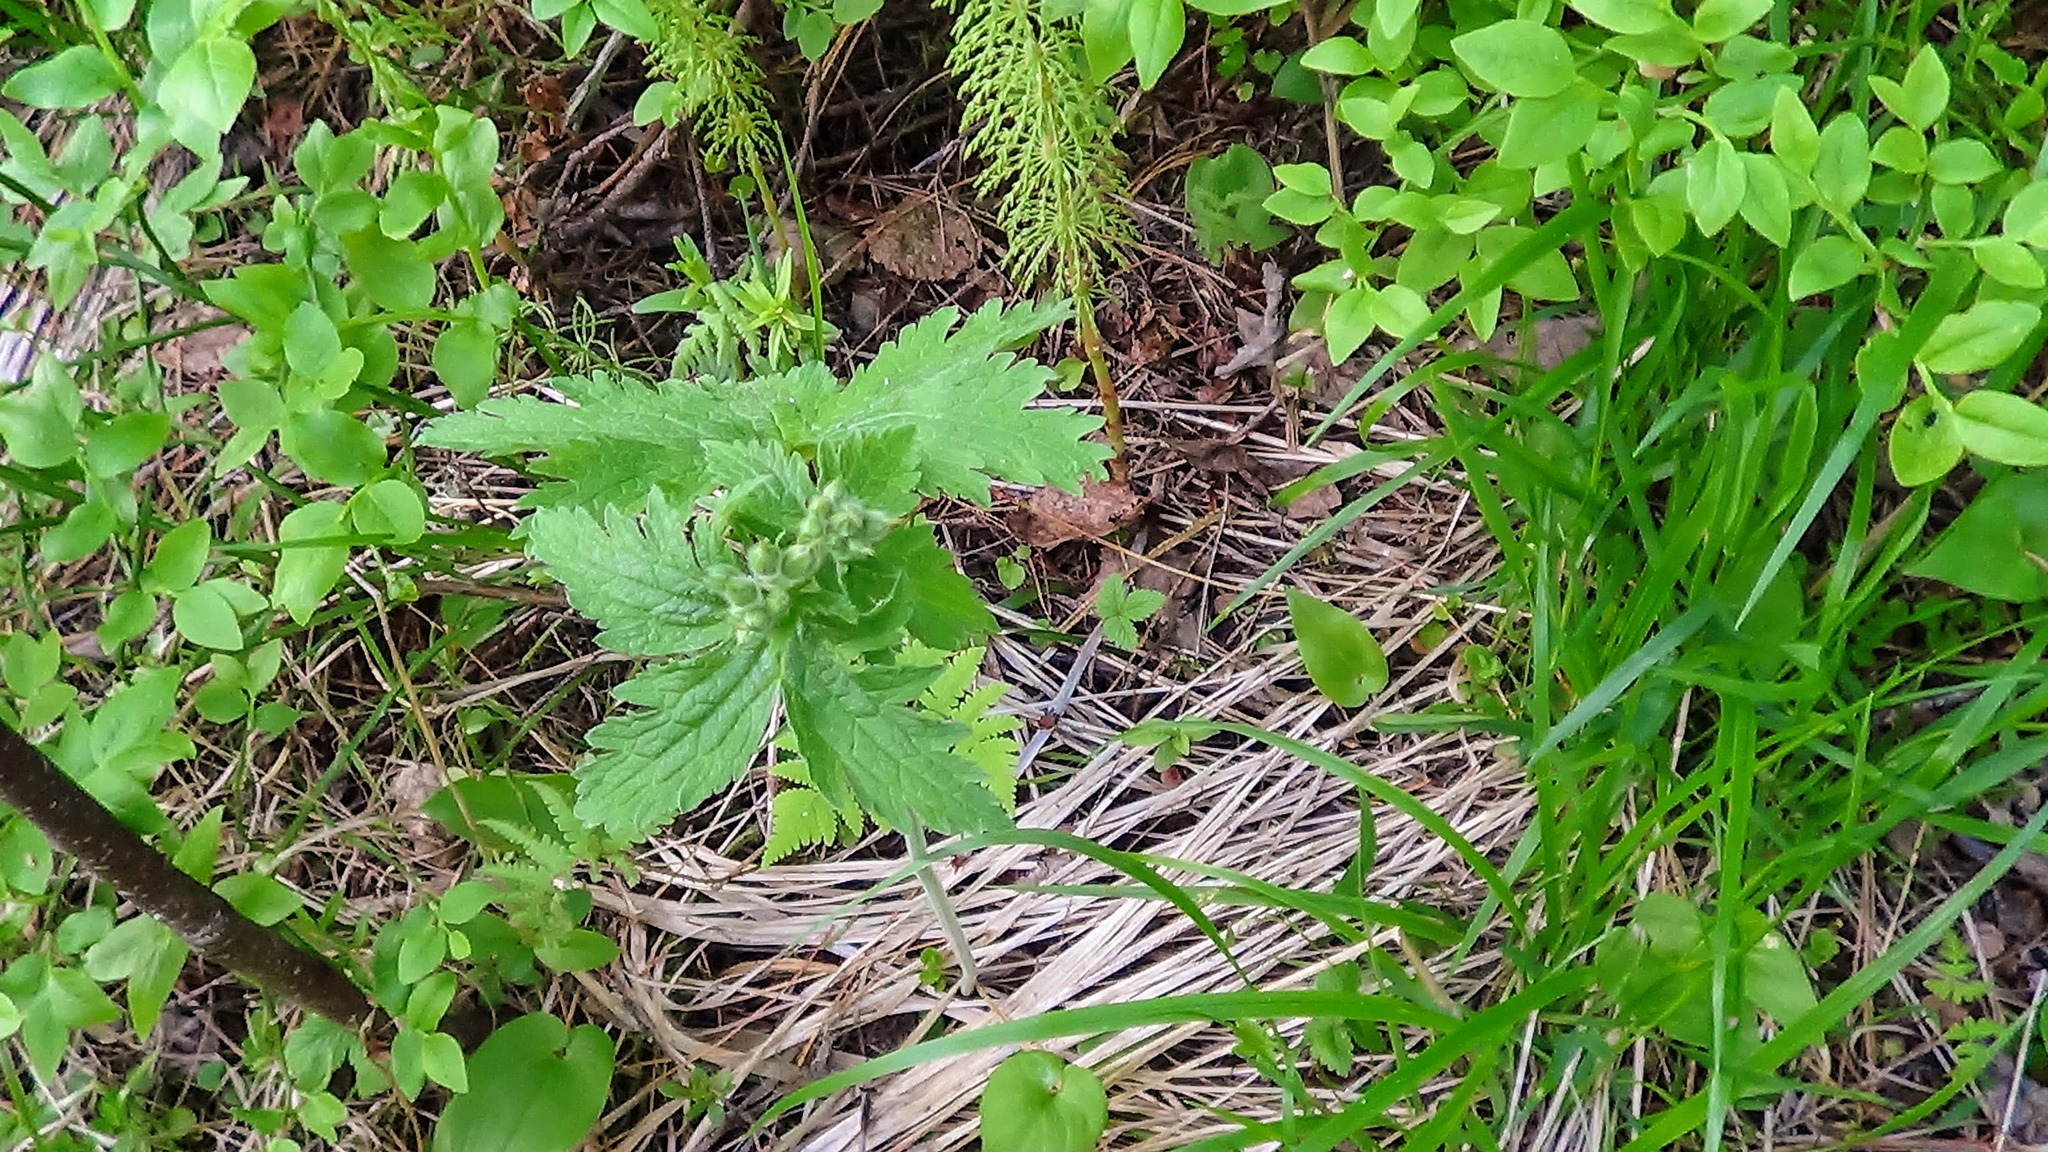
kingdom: Plantae
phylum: Tracheophyta
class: Magnoliopsida
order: Geraniales
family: Geraniaceae
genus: Geranium
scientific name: Geranium sylvaticum
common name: Wood crane's-bill
